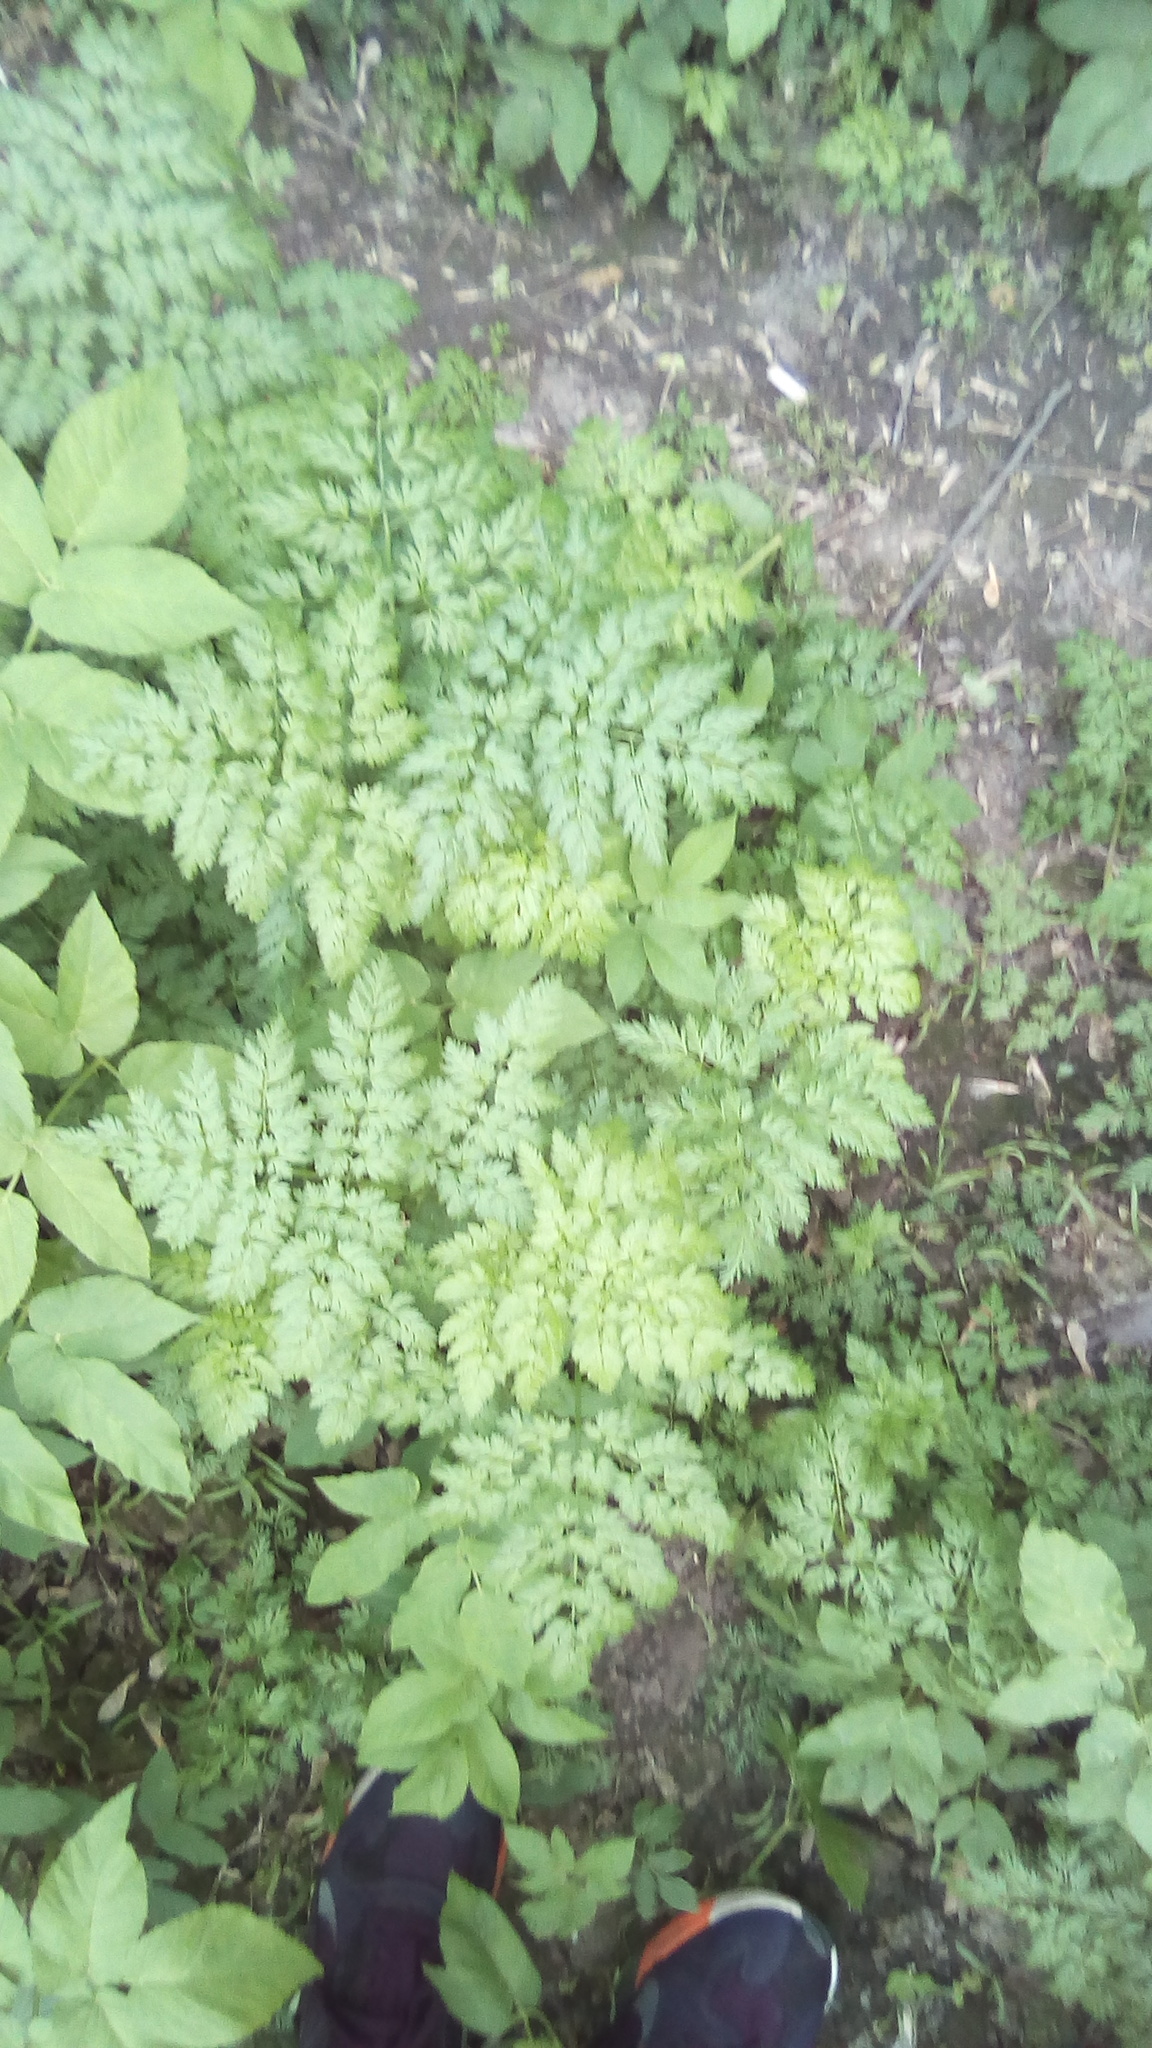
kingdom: Plantae
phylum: Tracheophyta
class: Magnoliopsida
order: Apiales
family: Apiaceae
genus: Anthriscus
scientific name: Anthriscus sylvestris
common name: Cow parsley
